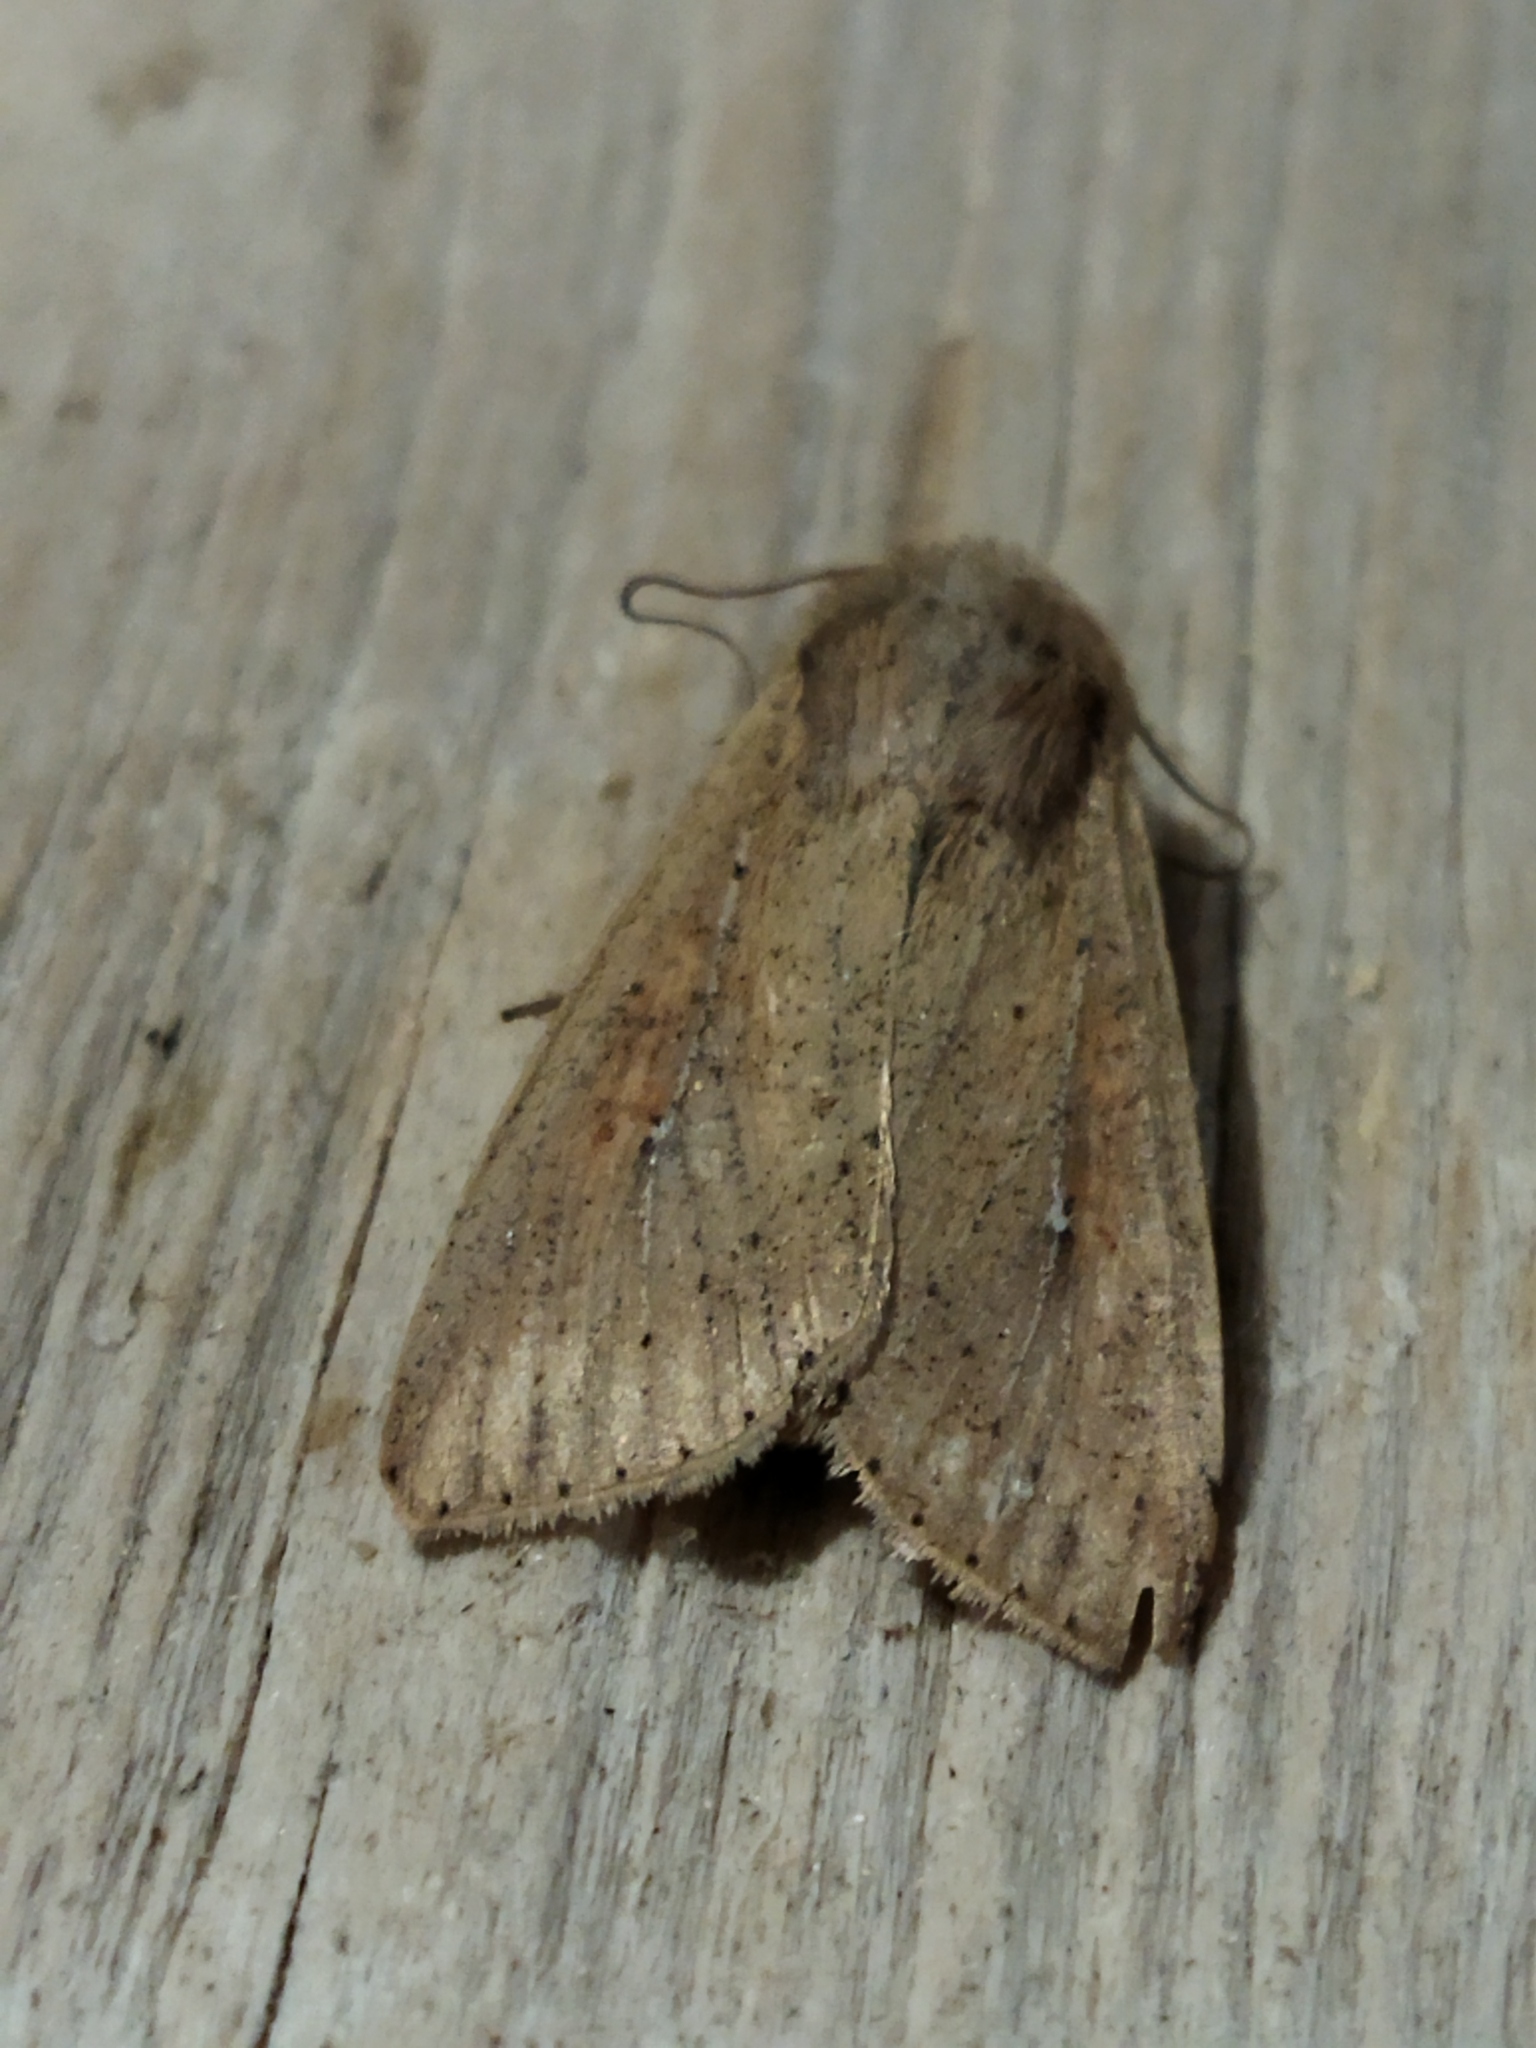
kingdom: Animalia
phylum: Arthropoda
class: Insecta
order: Lepidoptera
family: Noctuidae
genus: Mythimna
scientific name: Mythimna unipuncta
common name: White-speck
